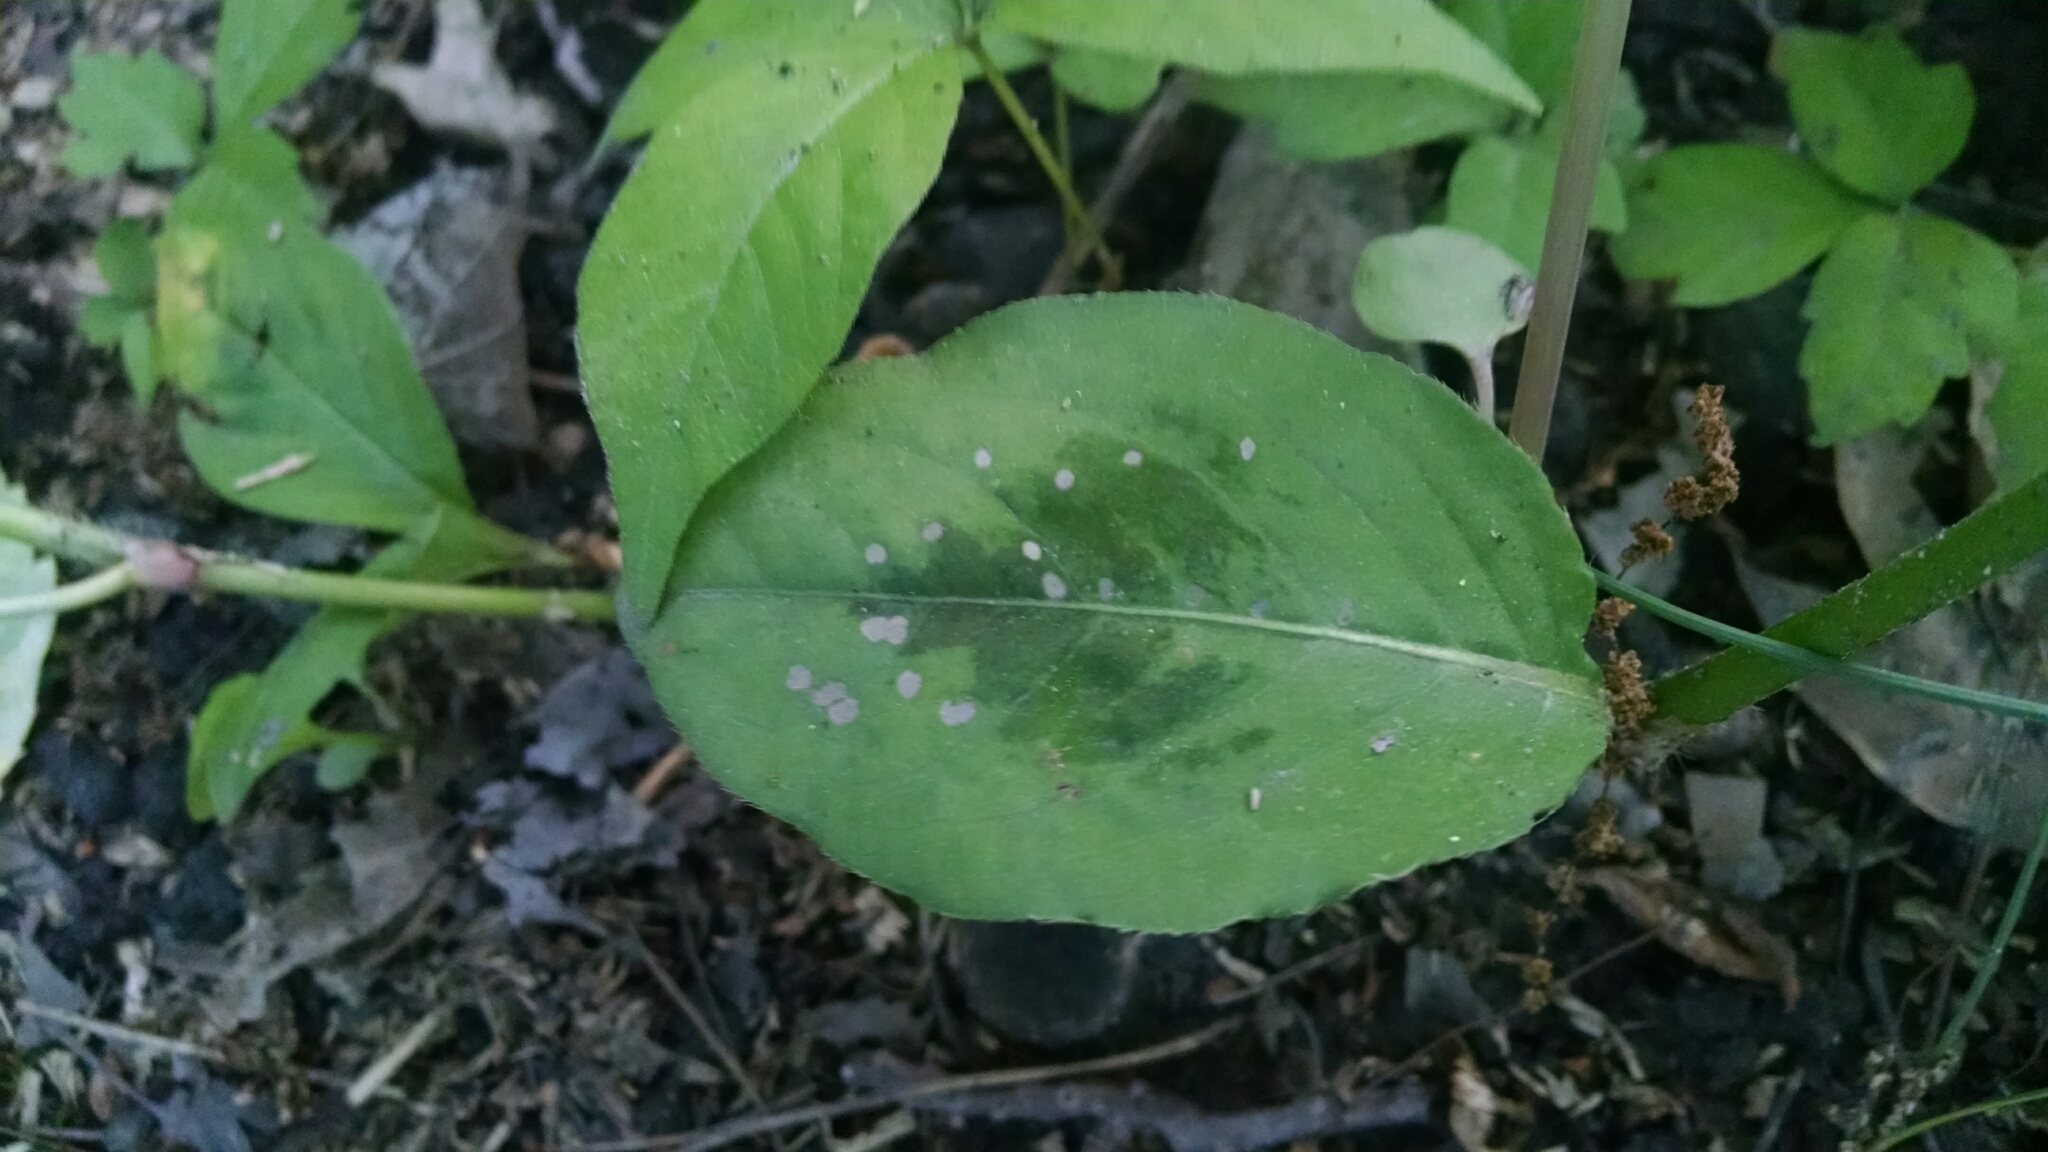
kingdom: Plantae
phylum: Tracheophyta
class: Magnoliopsida
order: Caryophyllales
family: Polygonaceae
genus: Persicaria
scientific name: Persicaria virginiana
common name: Jumpseed
